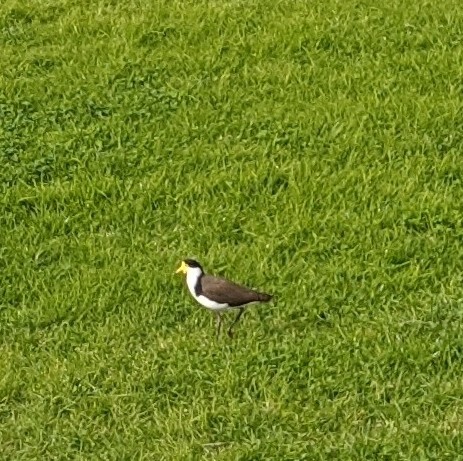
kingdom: Animalia
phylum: Chordata
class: Aves
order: Charadriiformes
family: Charadriidae
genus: Vanellus
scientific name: Vanellus miles
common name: Masked lapwing
